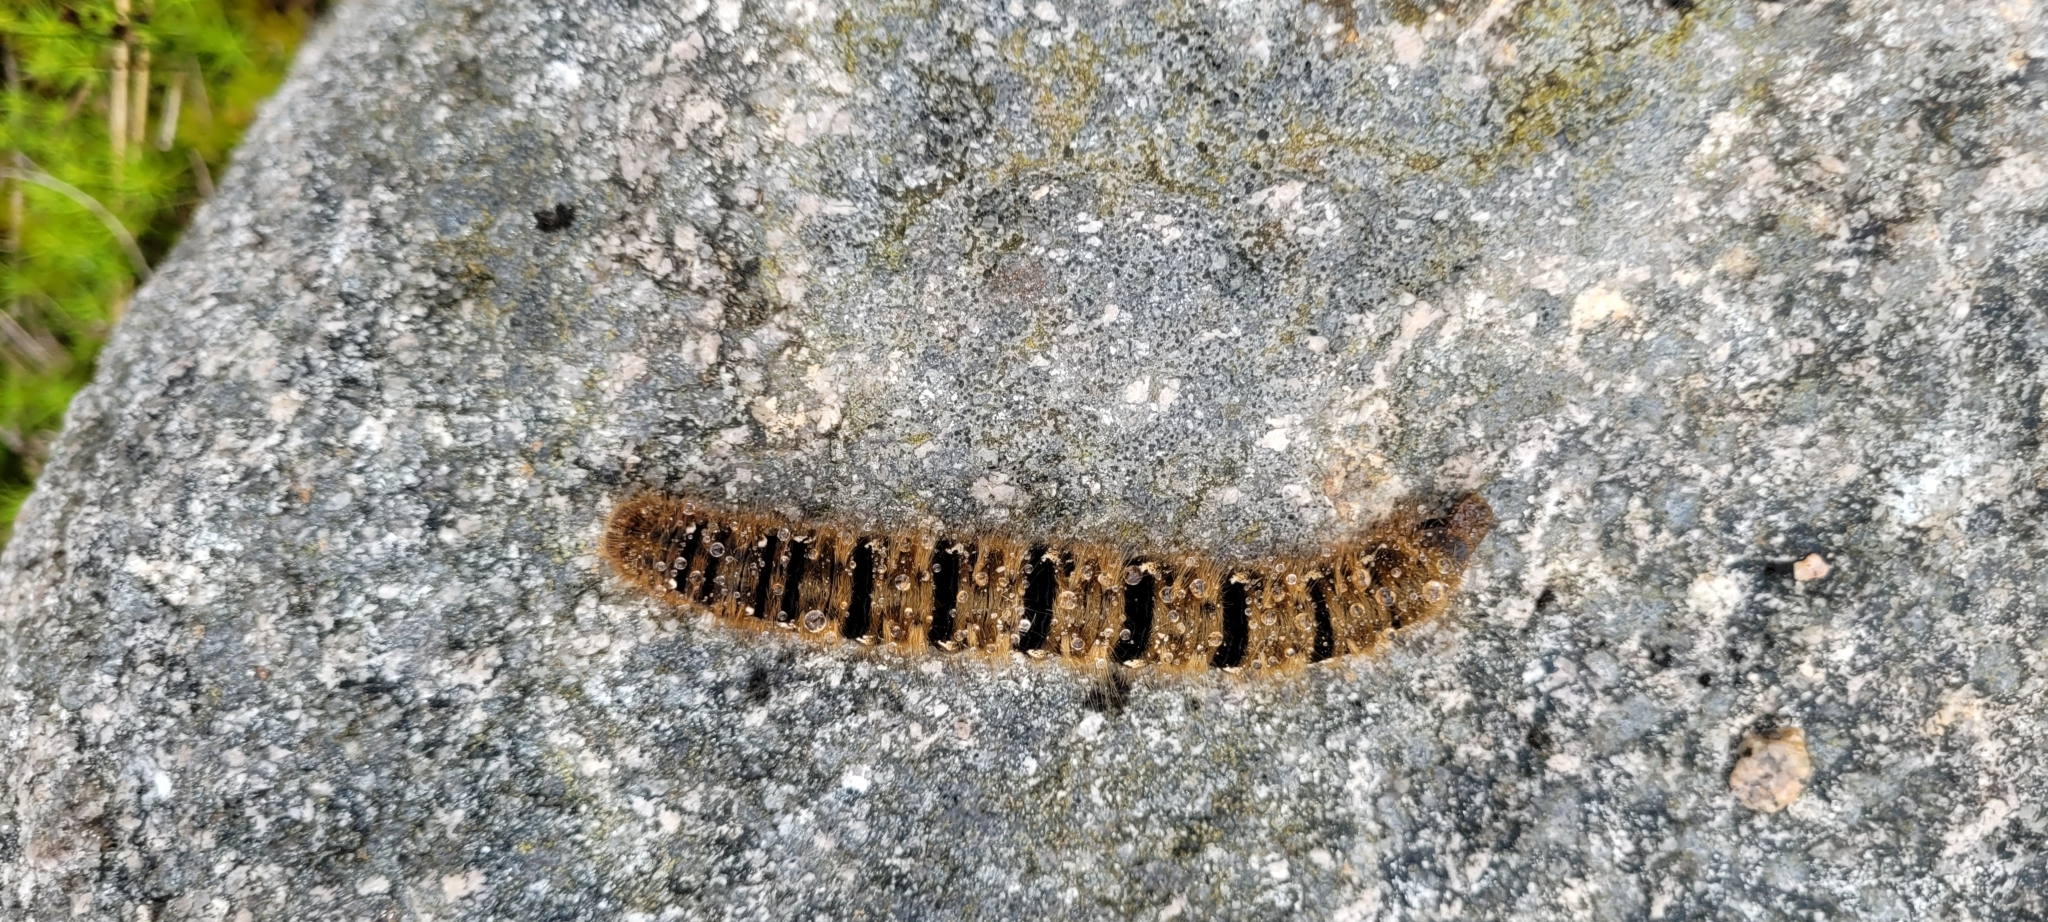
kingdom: Animalia
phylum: Arthropoda
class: Insecta
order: Lepidoptera
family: Lasiocampidae
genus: Lasiocampa
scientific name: Lasiocampa quercus
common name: Oak eggar
